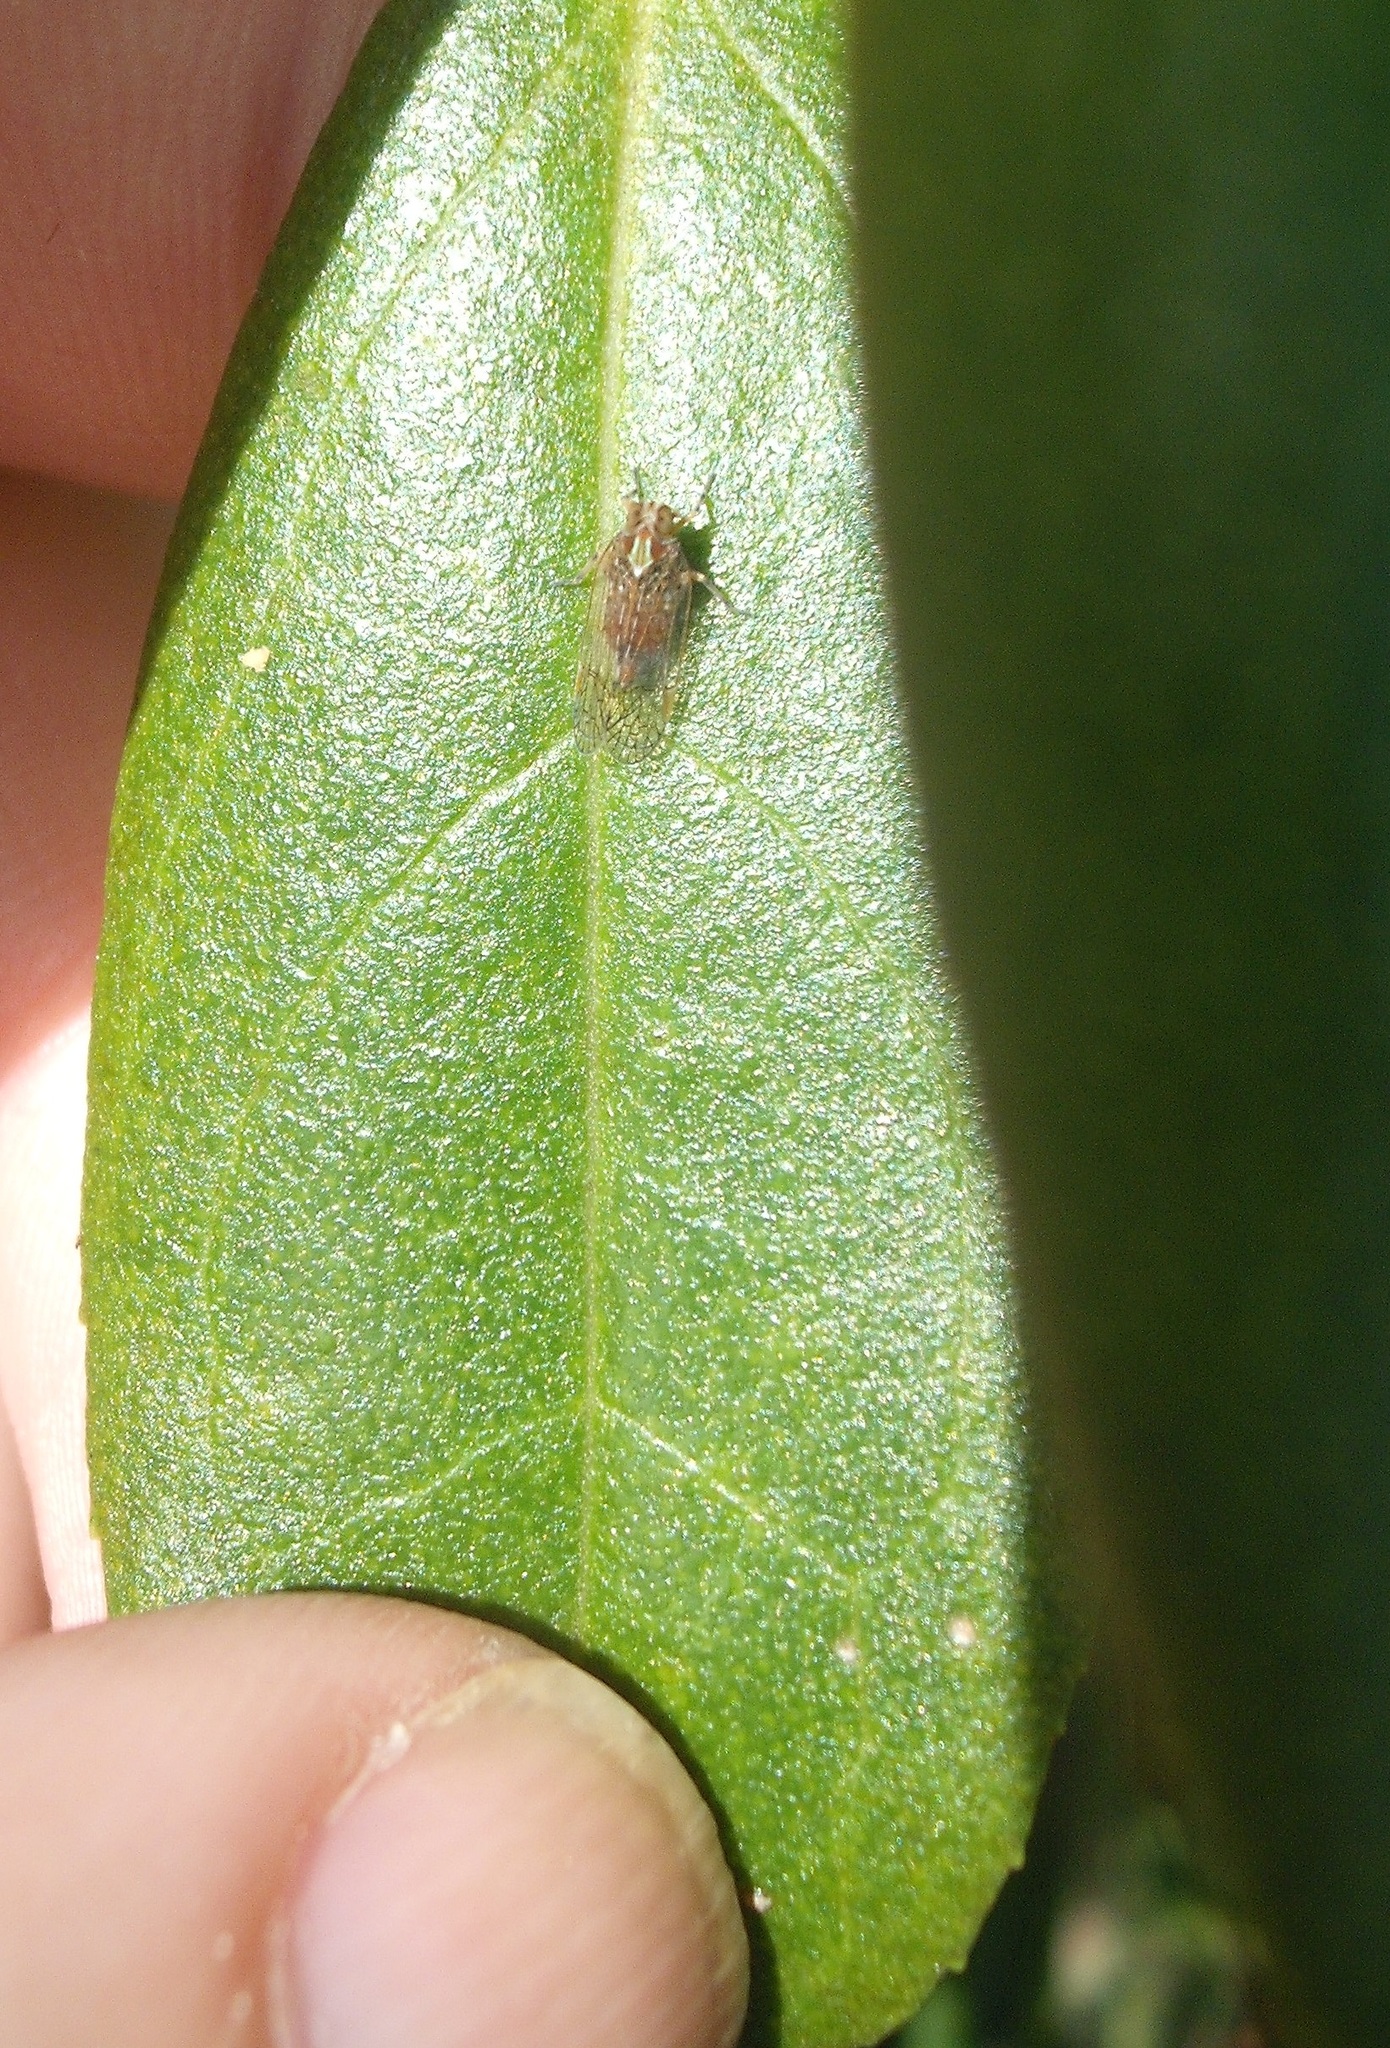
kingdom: Animalia
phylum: Arthropoda
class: Insecta
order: Hemiptera
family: Cixiidae
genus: Koroana
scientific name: Koroana rufifrons
